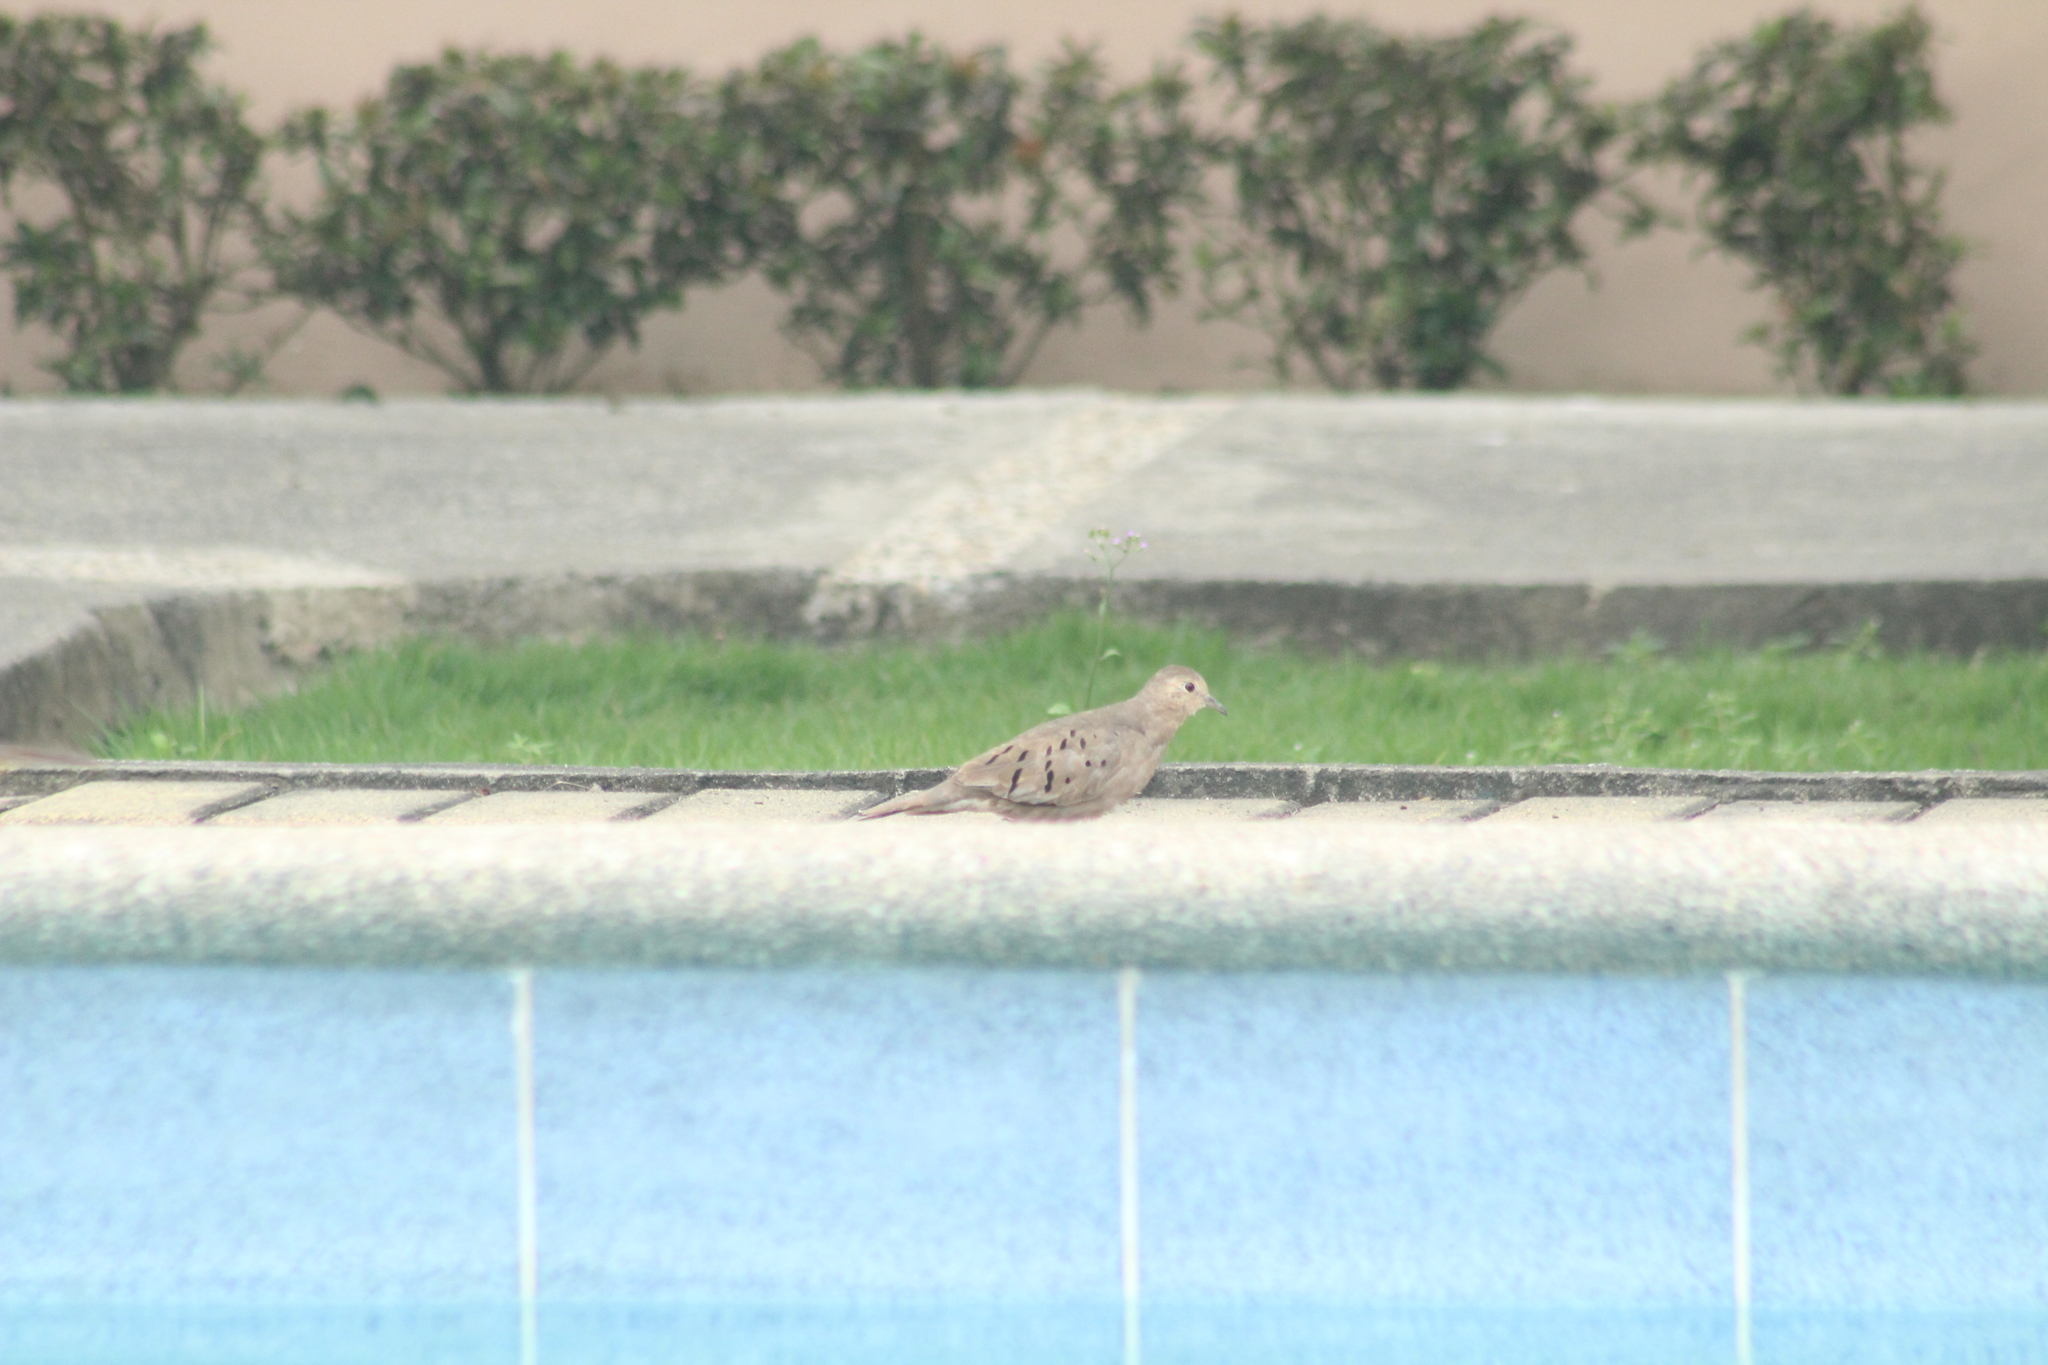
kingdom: Animalia
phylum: Chordata
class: Aves
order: Columbiformes
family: Columbidae
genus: Zenaida
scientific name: Zenaida auriculata
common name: Eared dove
